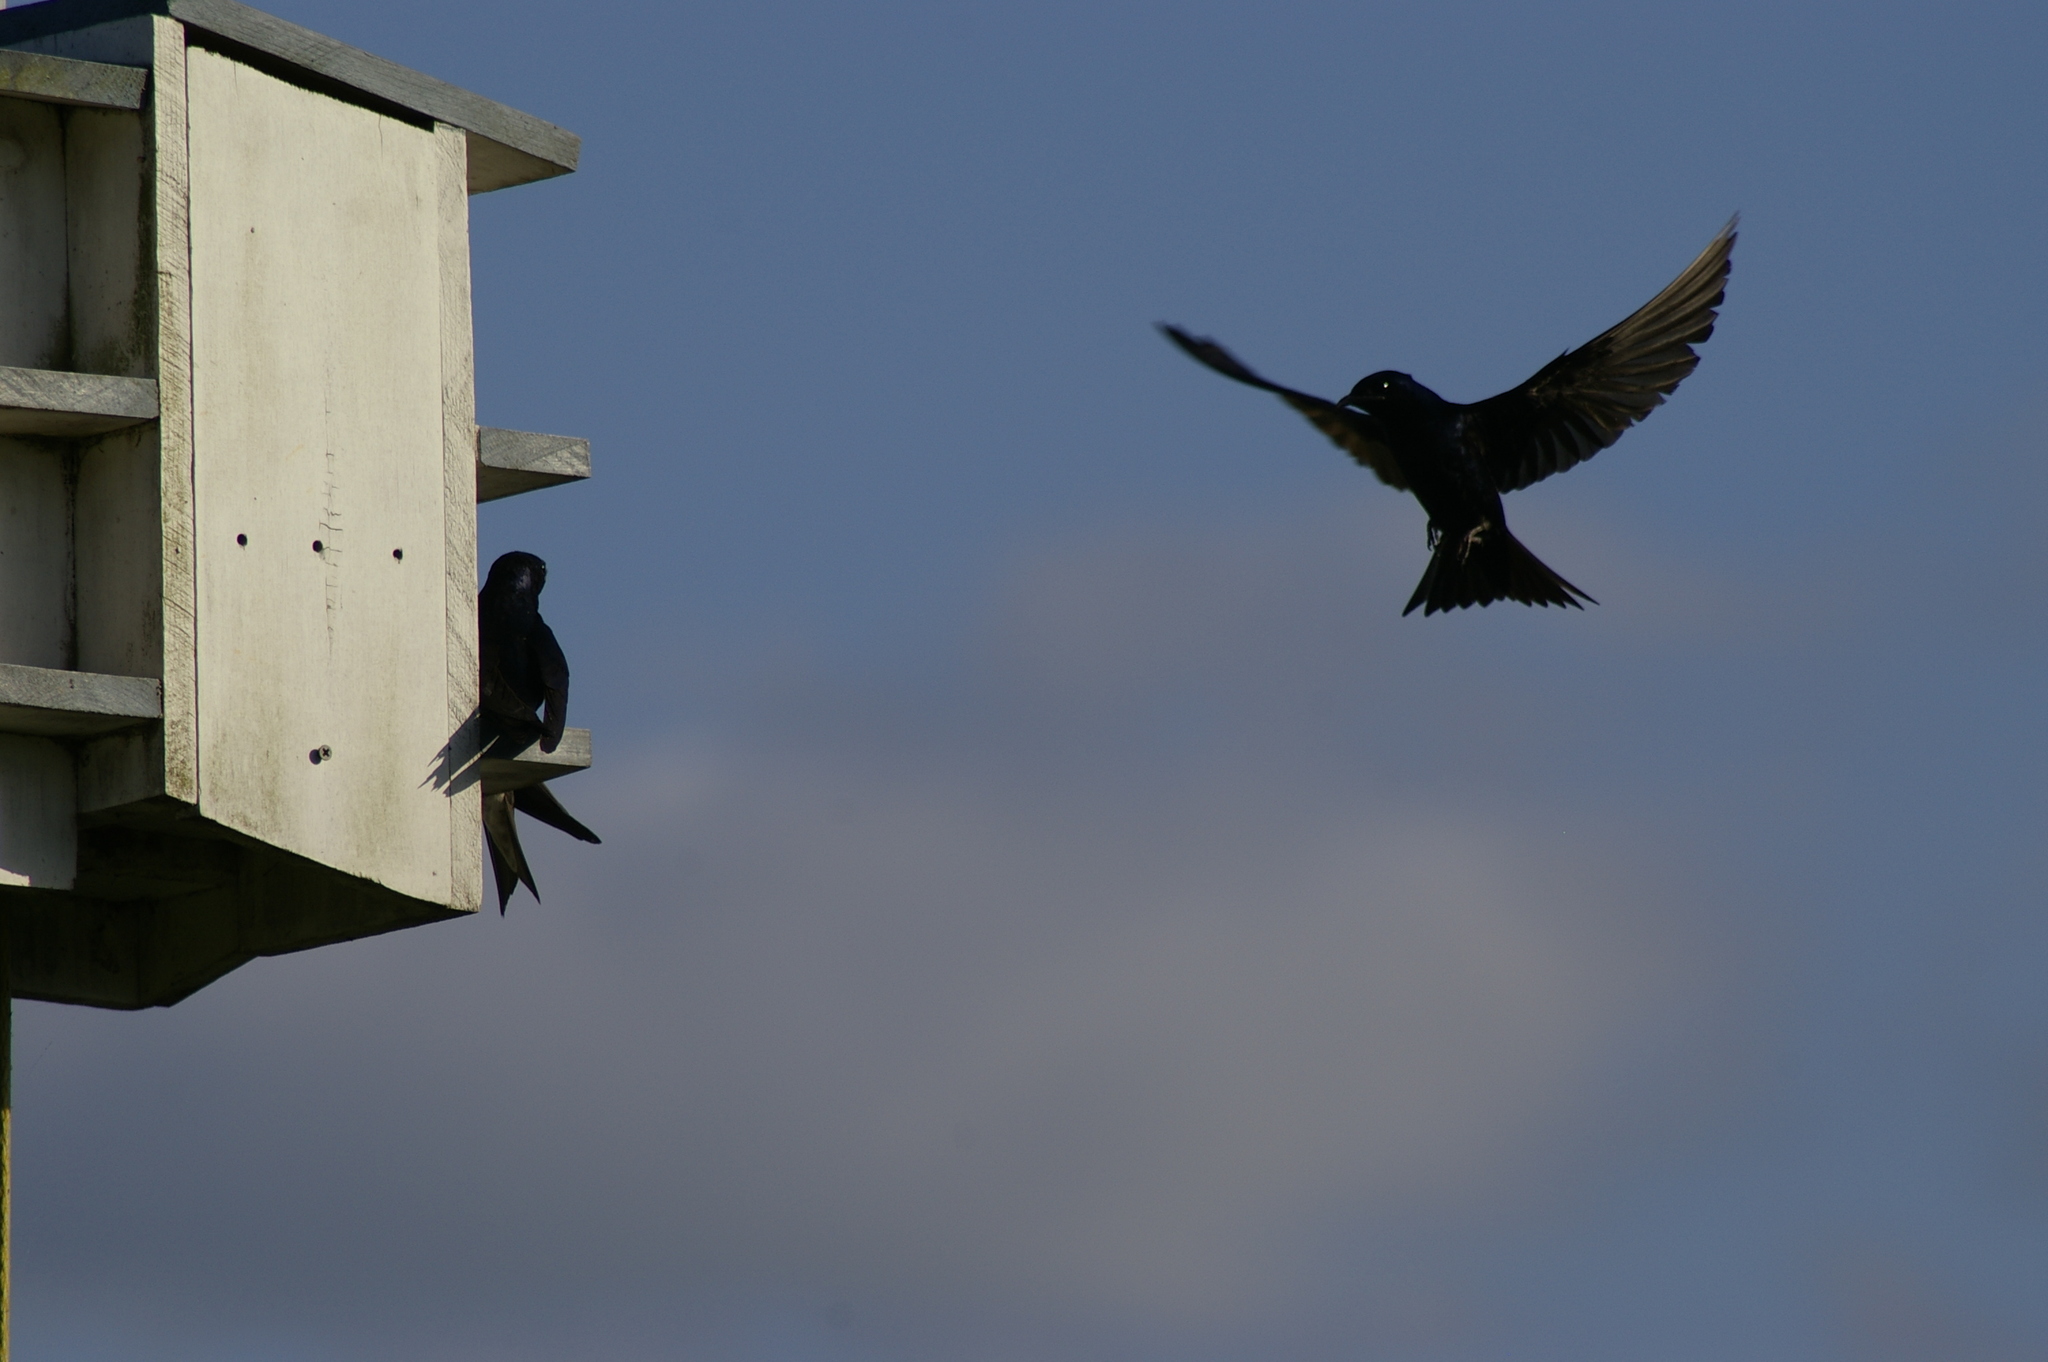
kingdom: Animalia
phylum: Chordata
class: Aves
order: Passeriformes
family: Hirundinidae
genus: Progne
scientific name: Progne subis
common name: Purple martin
